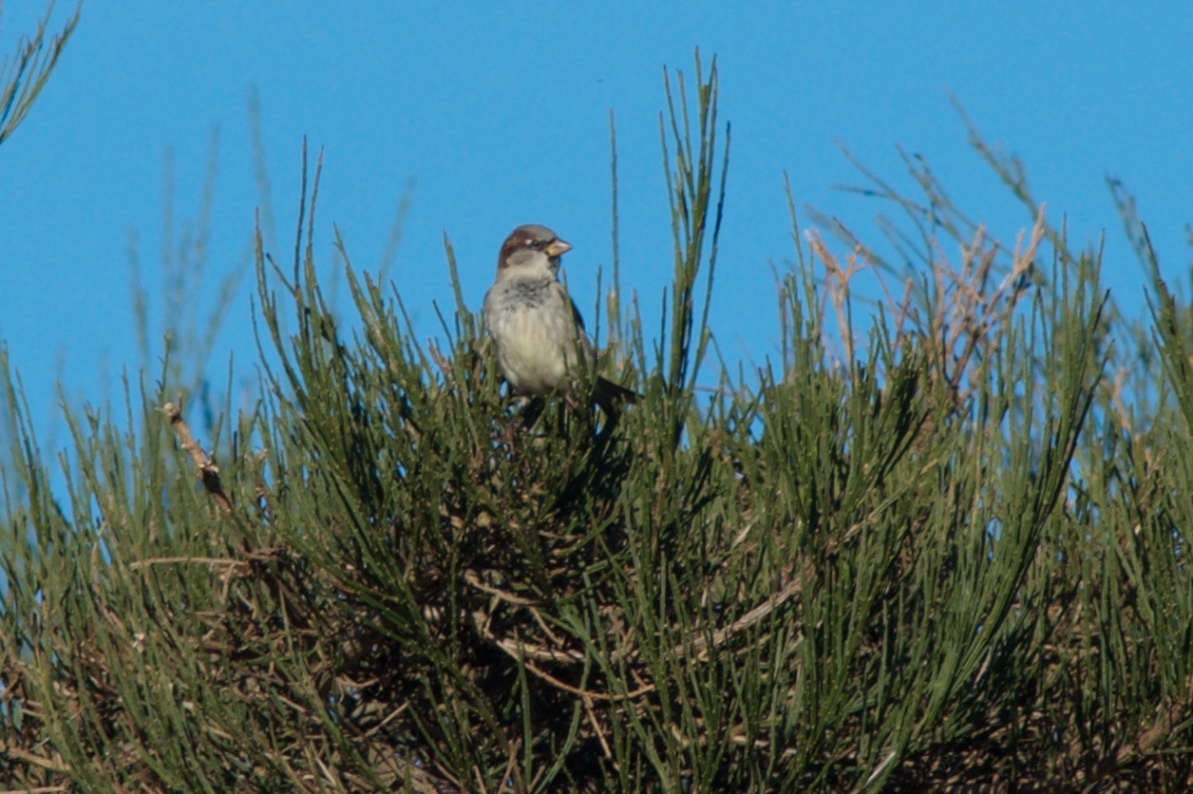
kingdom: Animalia
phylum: Chordata
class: Aves
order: Passeriformes
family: Passeridae
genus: Passer
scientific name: Passer domesticus
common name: House sparrow
